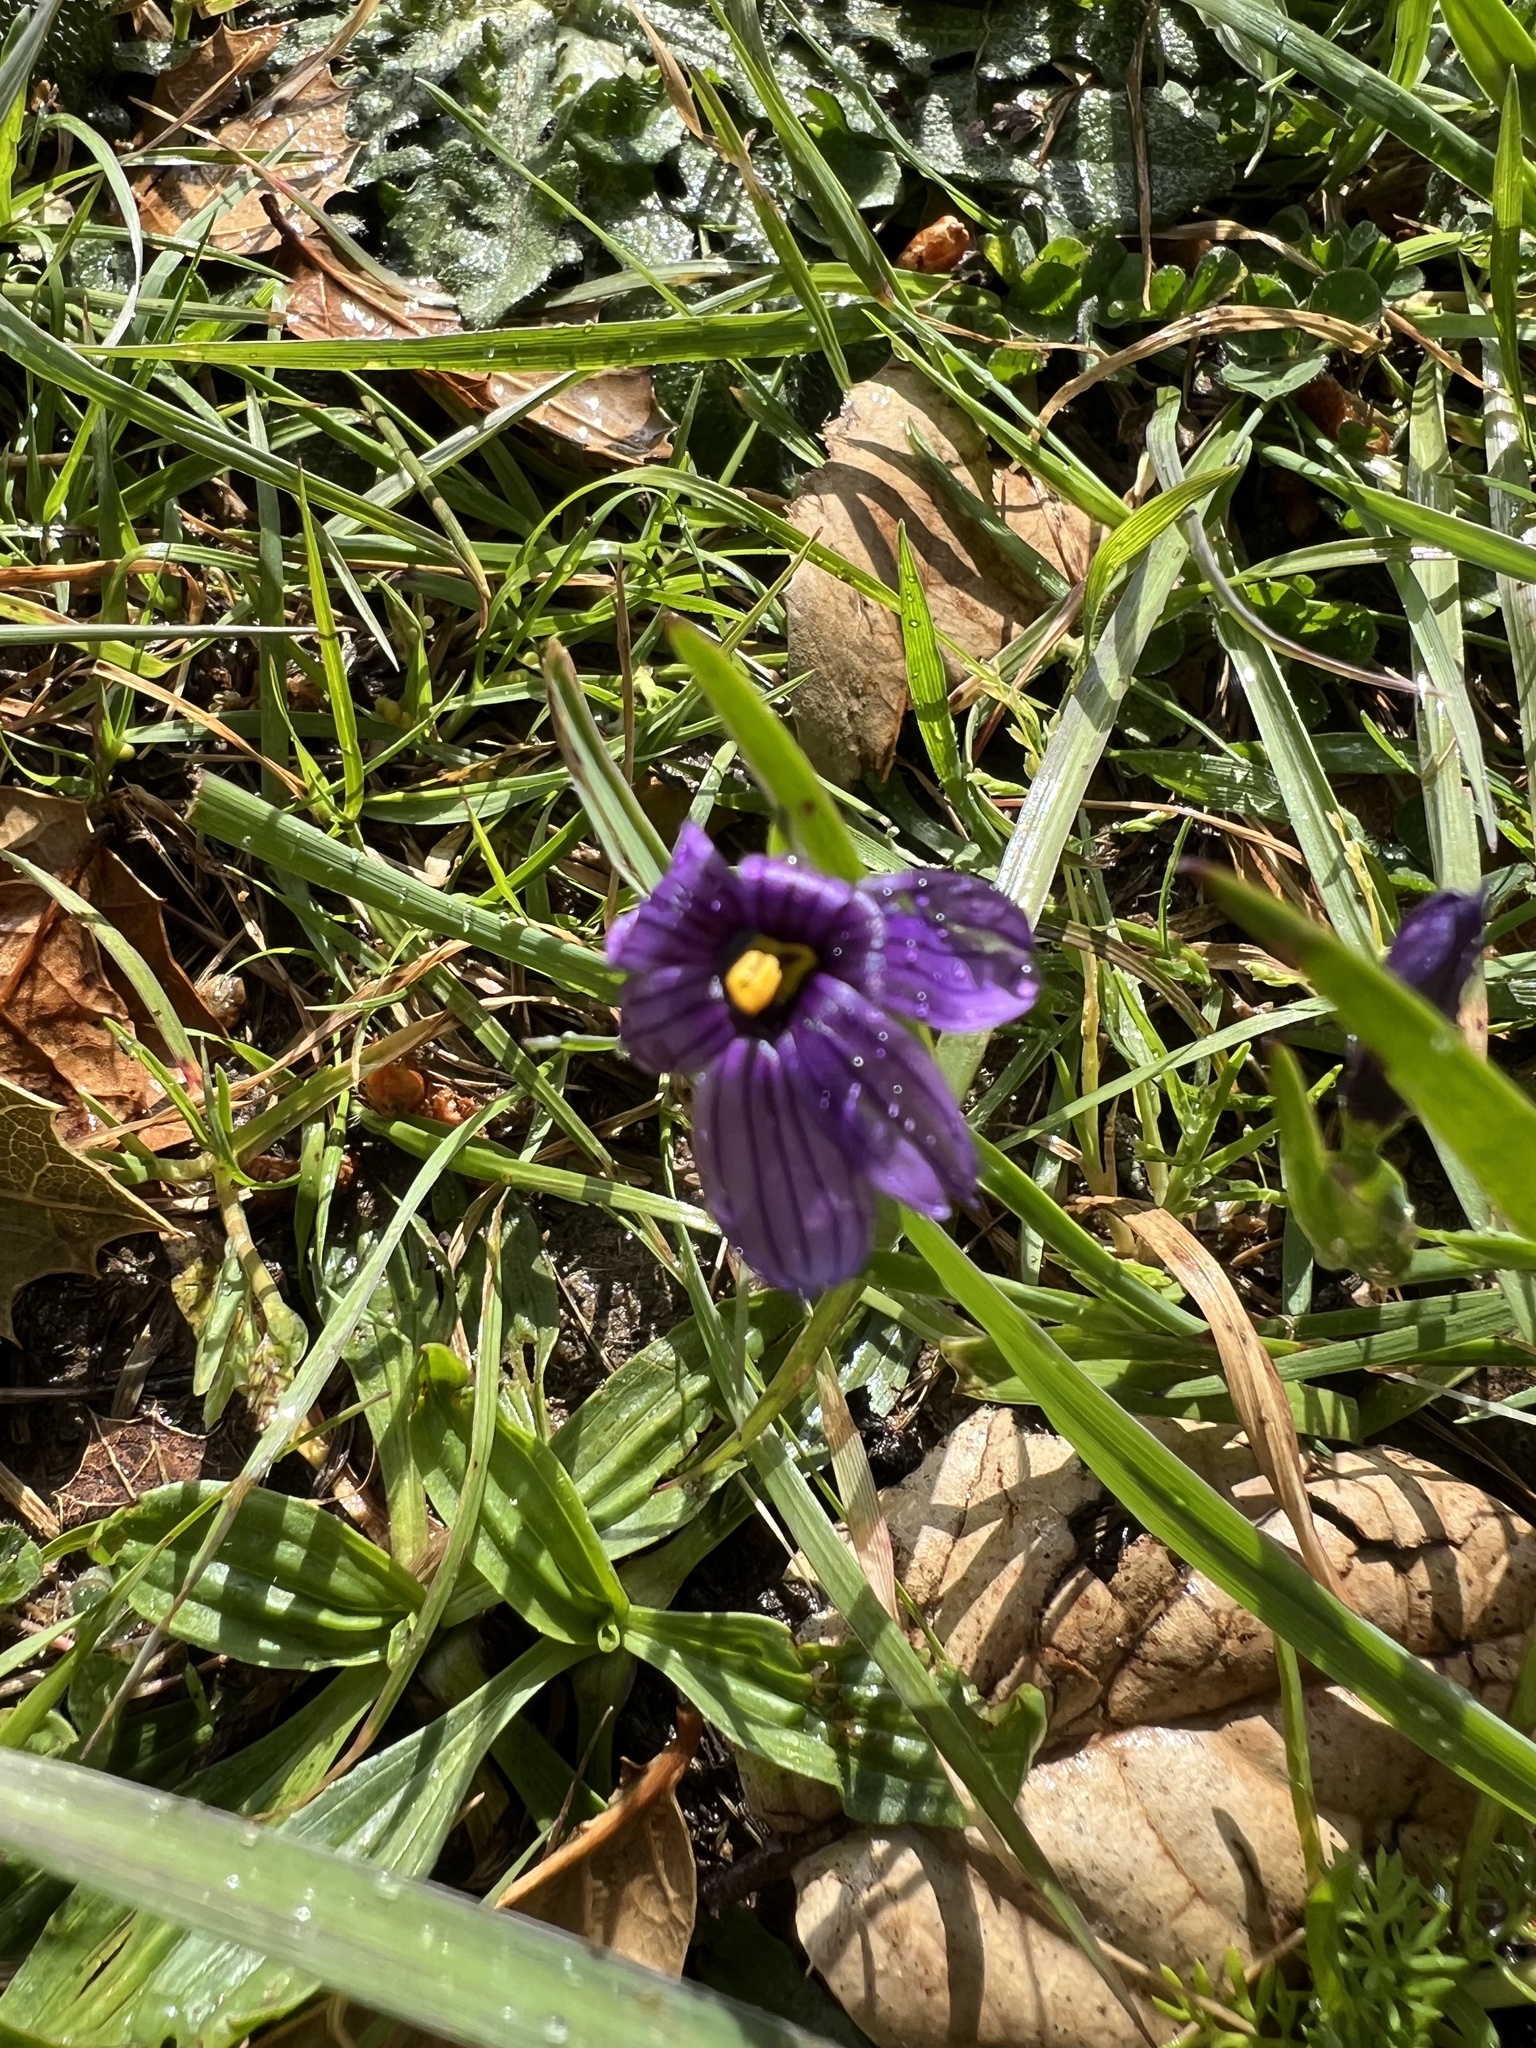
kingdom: Plantae
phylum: Tracheophyta
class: Liliopsida
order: Asparagales
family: Iridaceae
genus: Sisyrinchium
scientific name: Sisyrinchium bellum
